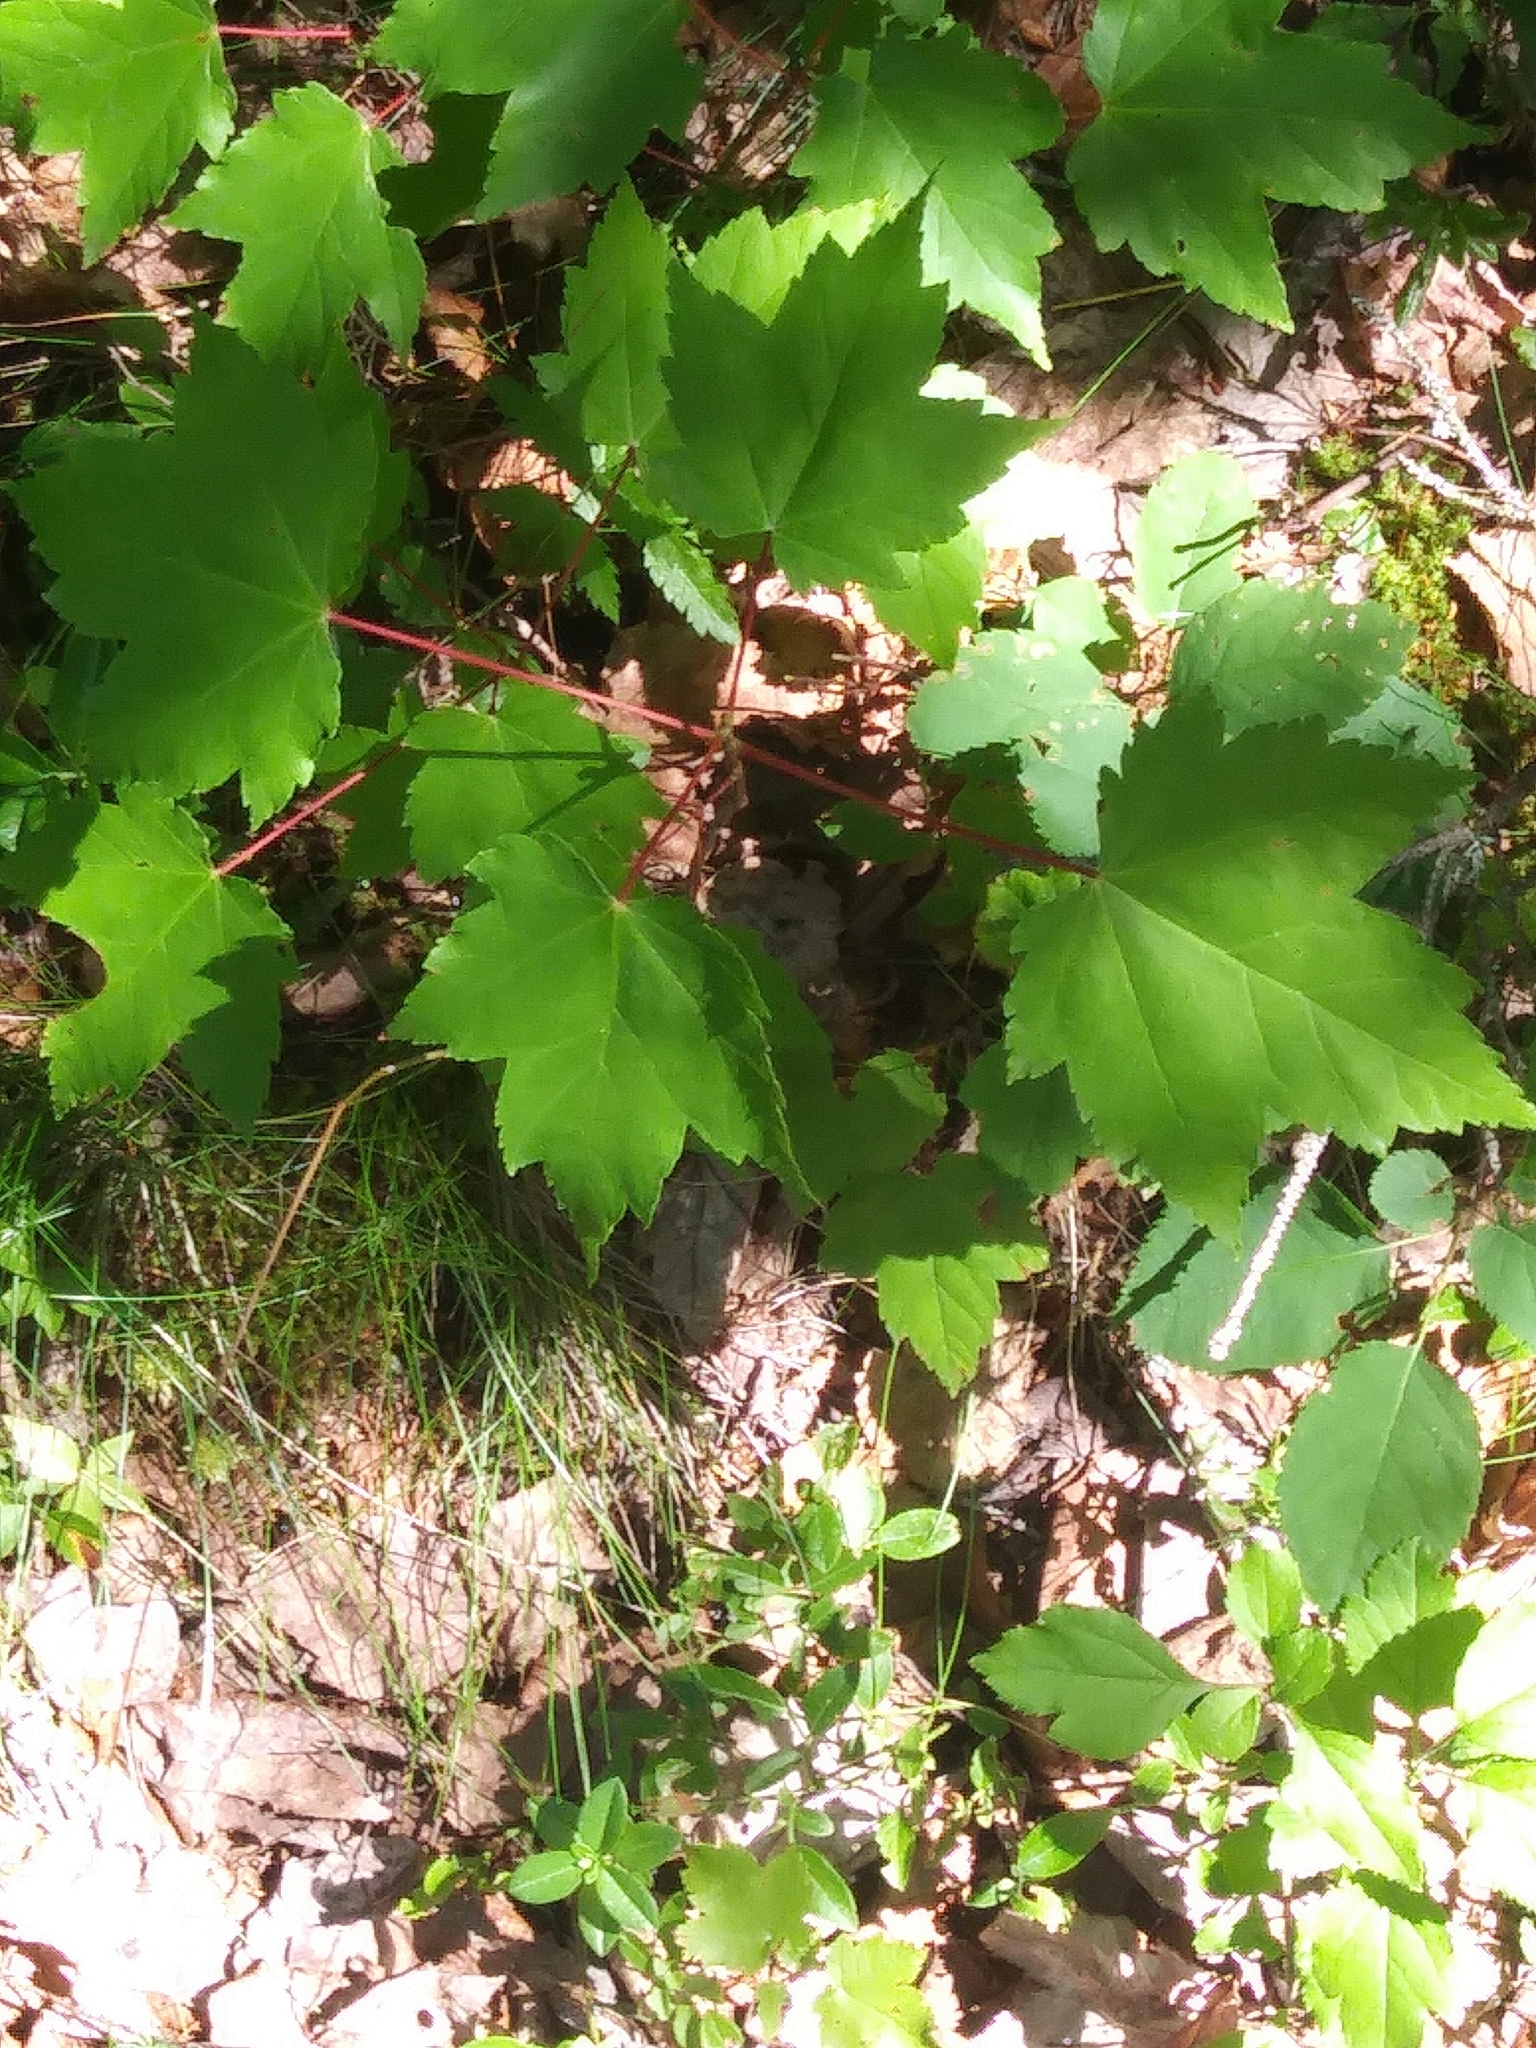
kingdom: Plantae
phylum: Tracheophyta
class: Magnoliopsida
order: Sapindales
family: Sapindaceae
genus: Acer
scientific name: Acer rubrum
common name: Red maple
